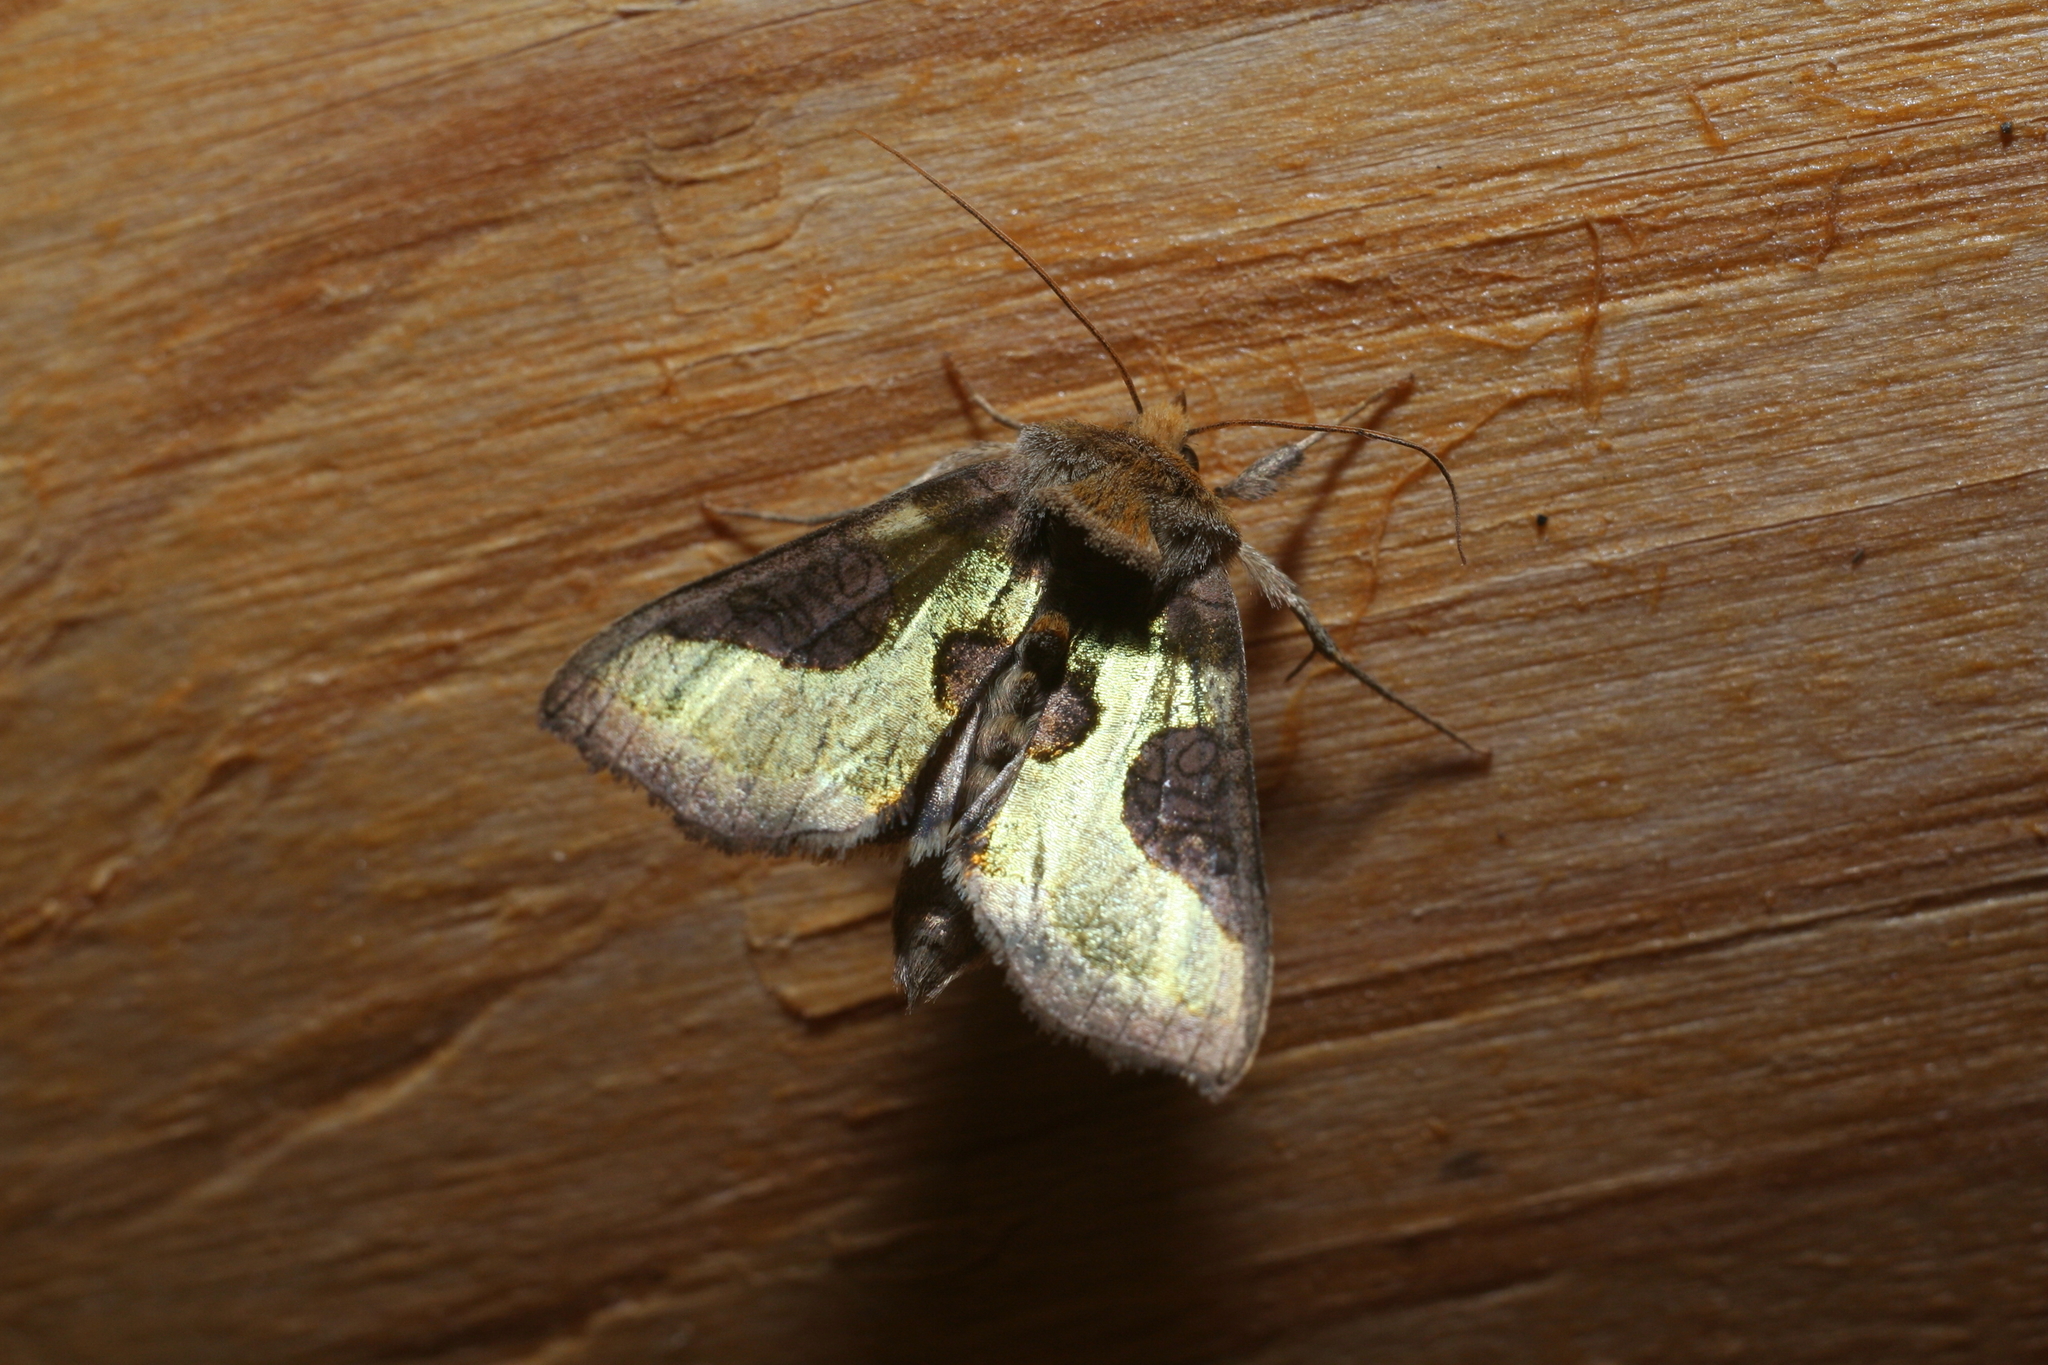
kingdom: Animalia
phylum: Arthropoda
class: Insecta
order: Lepidoptera
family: Noctuidae
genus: Diachrysia
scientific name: Diachrysia stenochrysis
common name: Cryptic burnished brass
